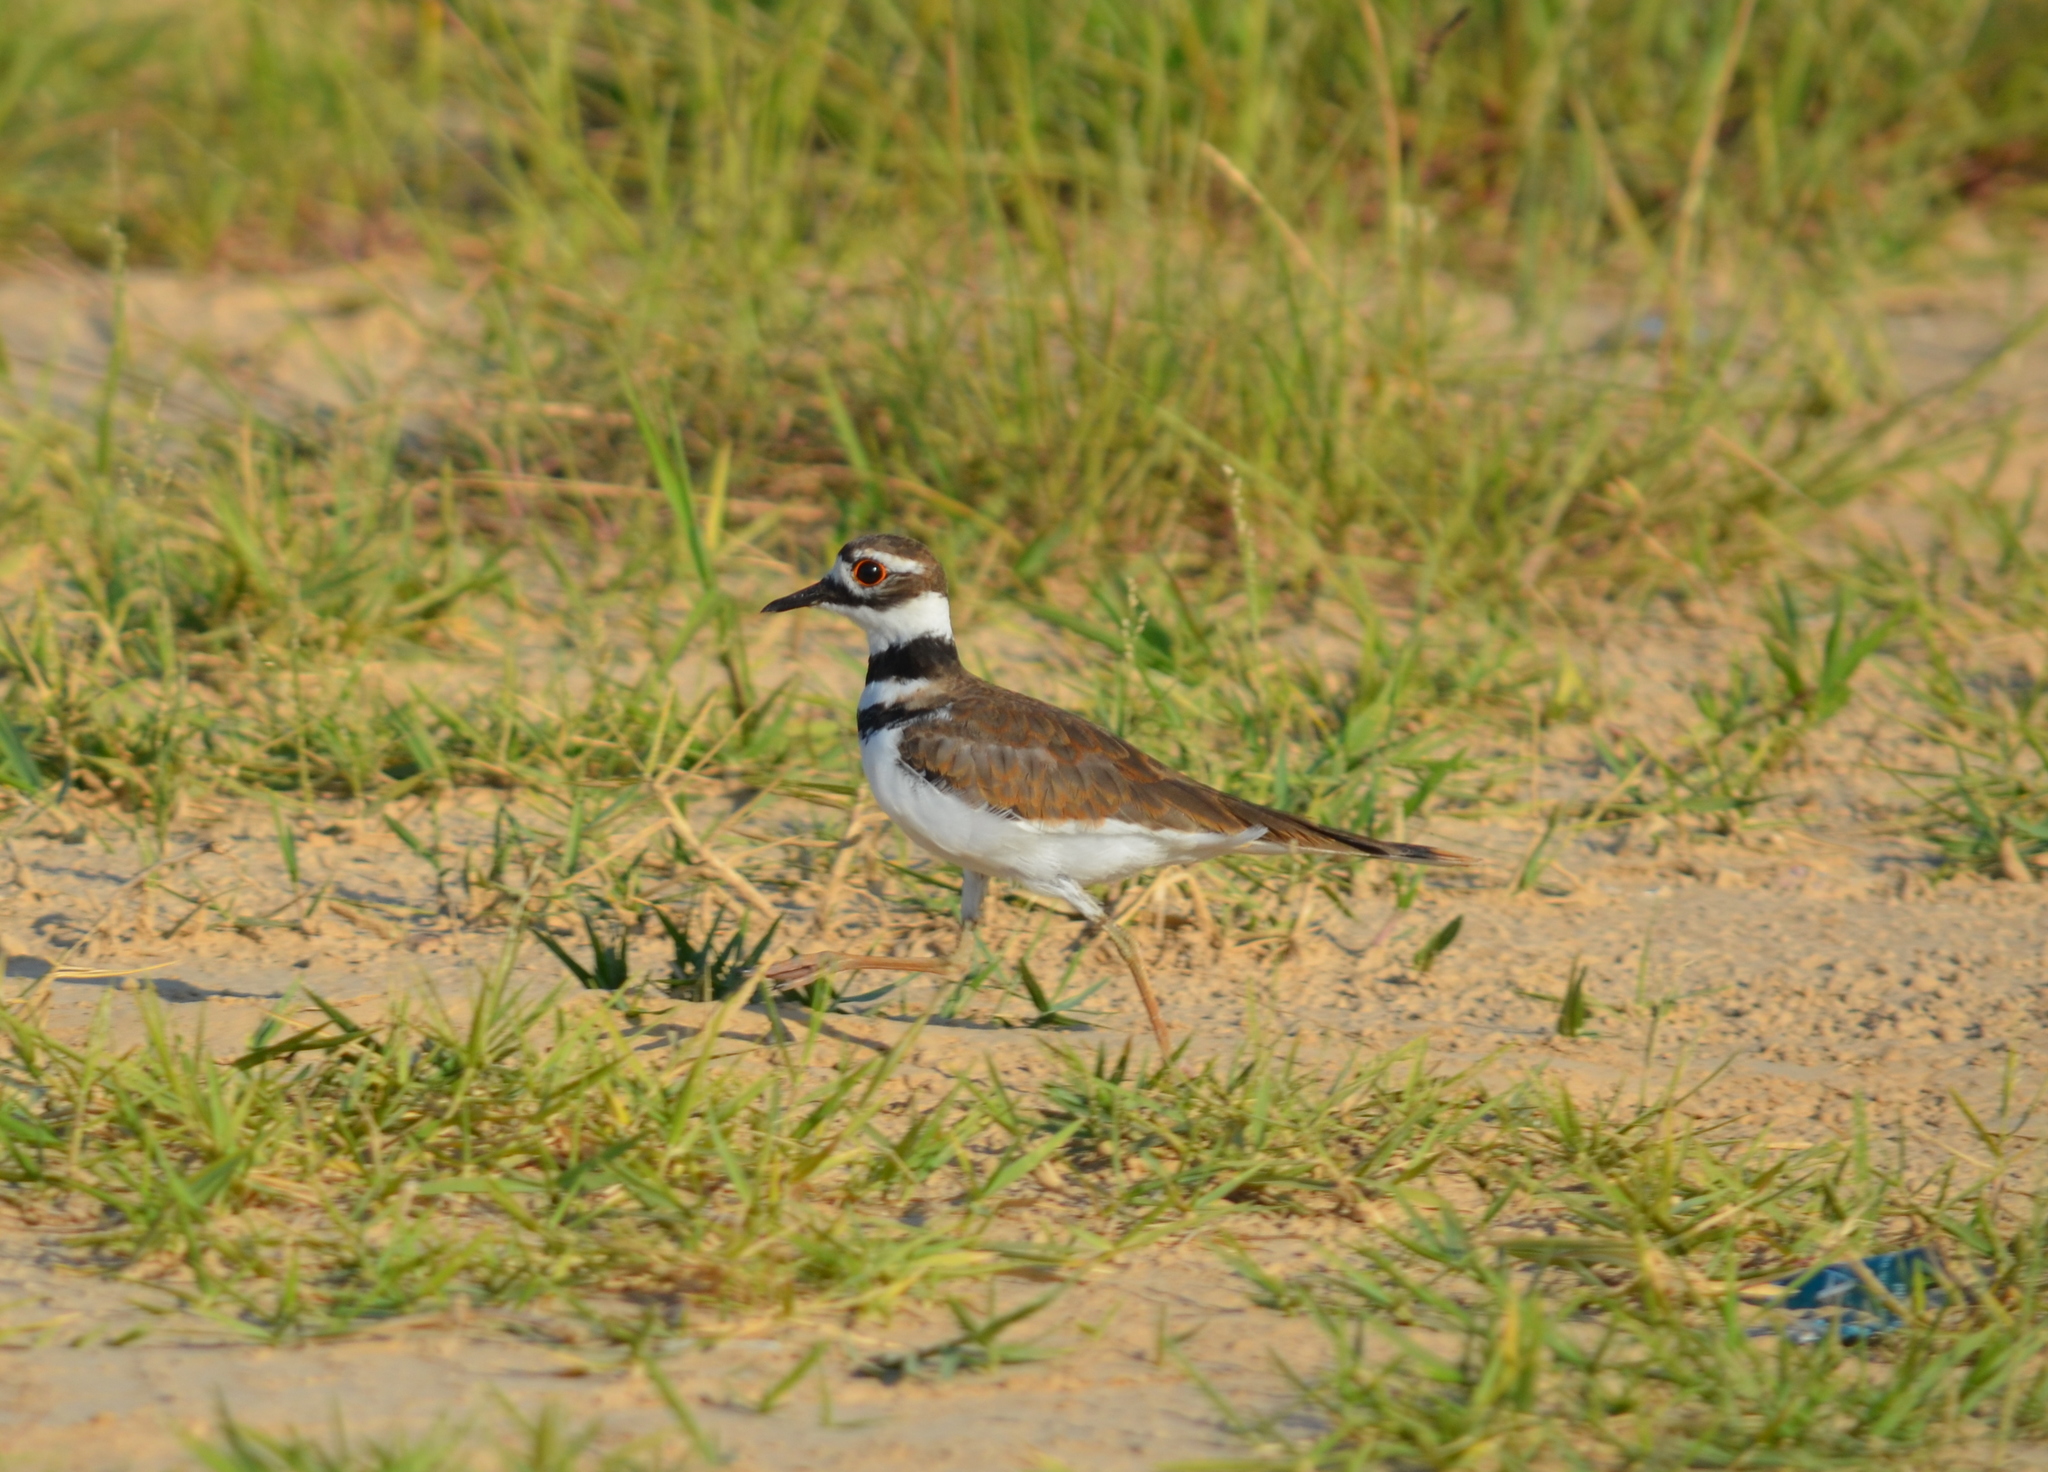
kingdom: Animalia
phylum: Chordata
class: Aves
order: Charadriiformes
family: Charadriidae
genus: Charadrius
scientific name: Charadrius vociferus
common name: Killdeer
